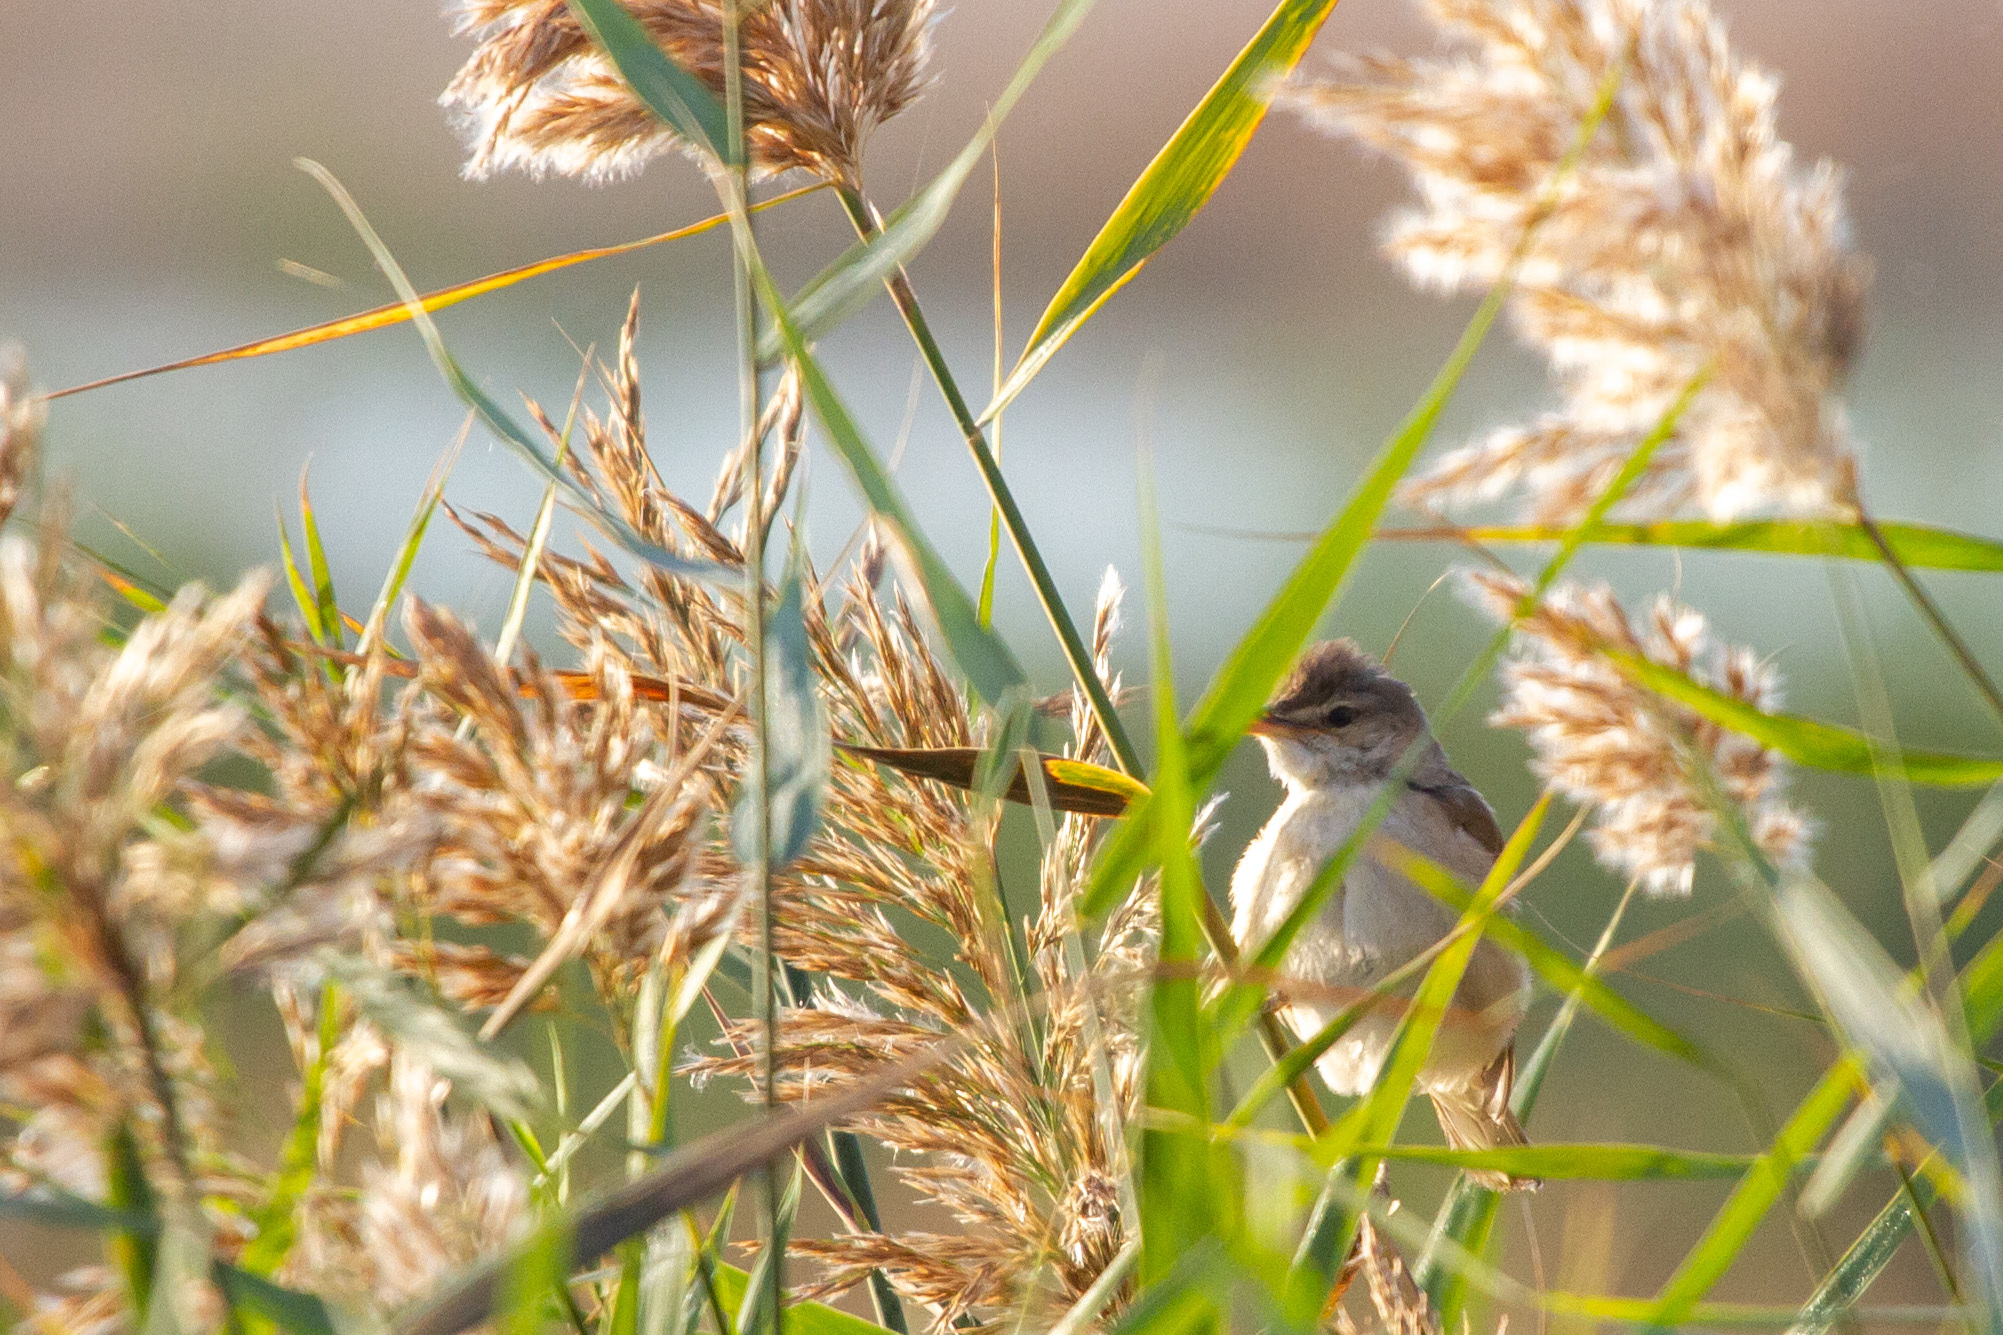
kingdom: Animalia
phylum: Chordata
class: Aves
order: Passeriformes
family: Acrocephalidae
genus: Acrocephalus
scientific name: Acrocephalus arundinaceus
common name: Great reed warbler
